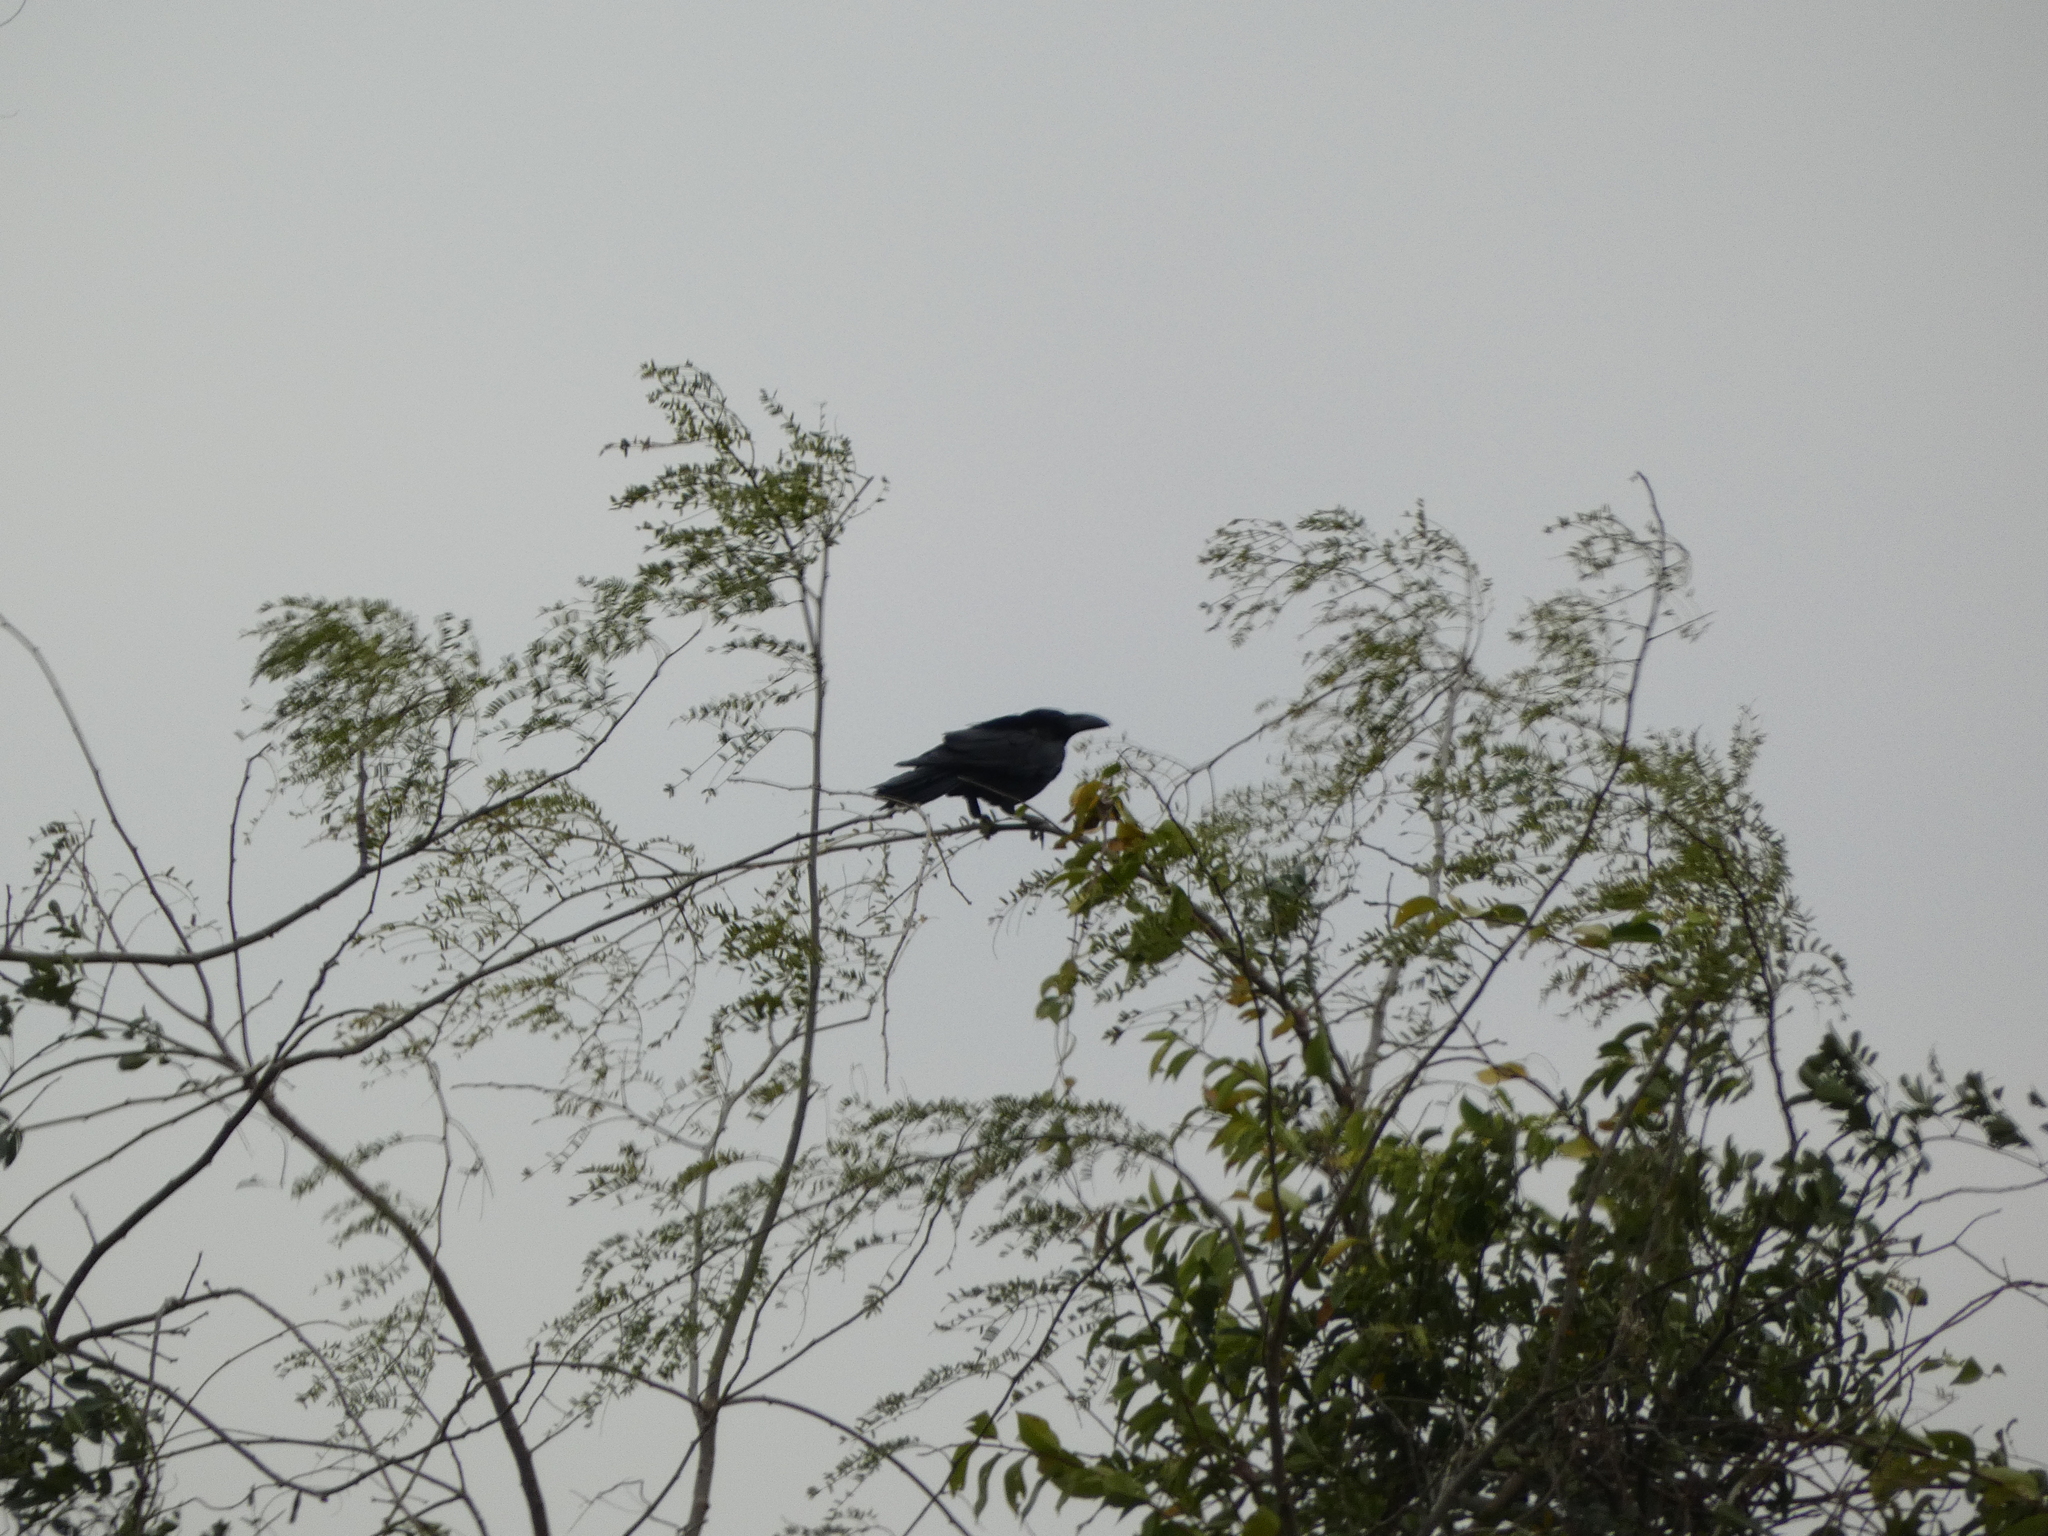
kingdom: Animalia
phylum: Chordata
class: Aves
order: Passeriformes
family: Corvidae
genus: Corvus
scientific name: Corvus macrorhynchos
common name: Large-billed crow
